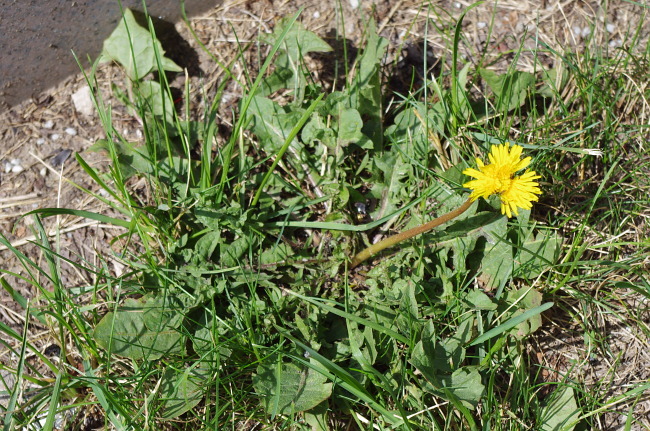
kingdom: Plantae
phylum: Tracheophyta
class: Magnoliopsida
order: Asterales
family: Asteraceae
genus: Taraxacum
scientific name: Taraxacum officinale
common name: Common dandelion
